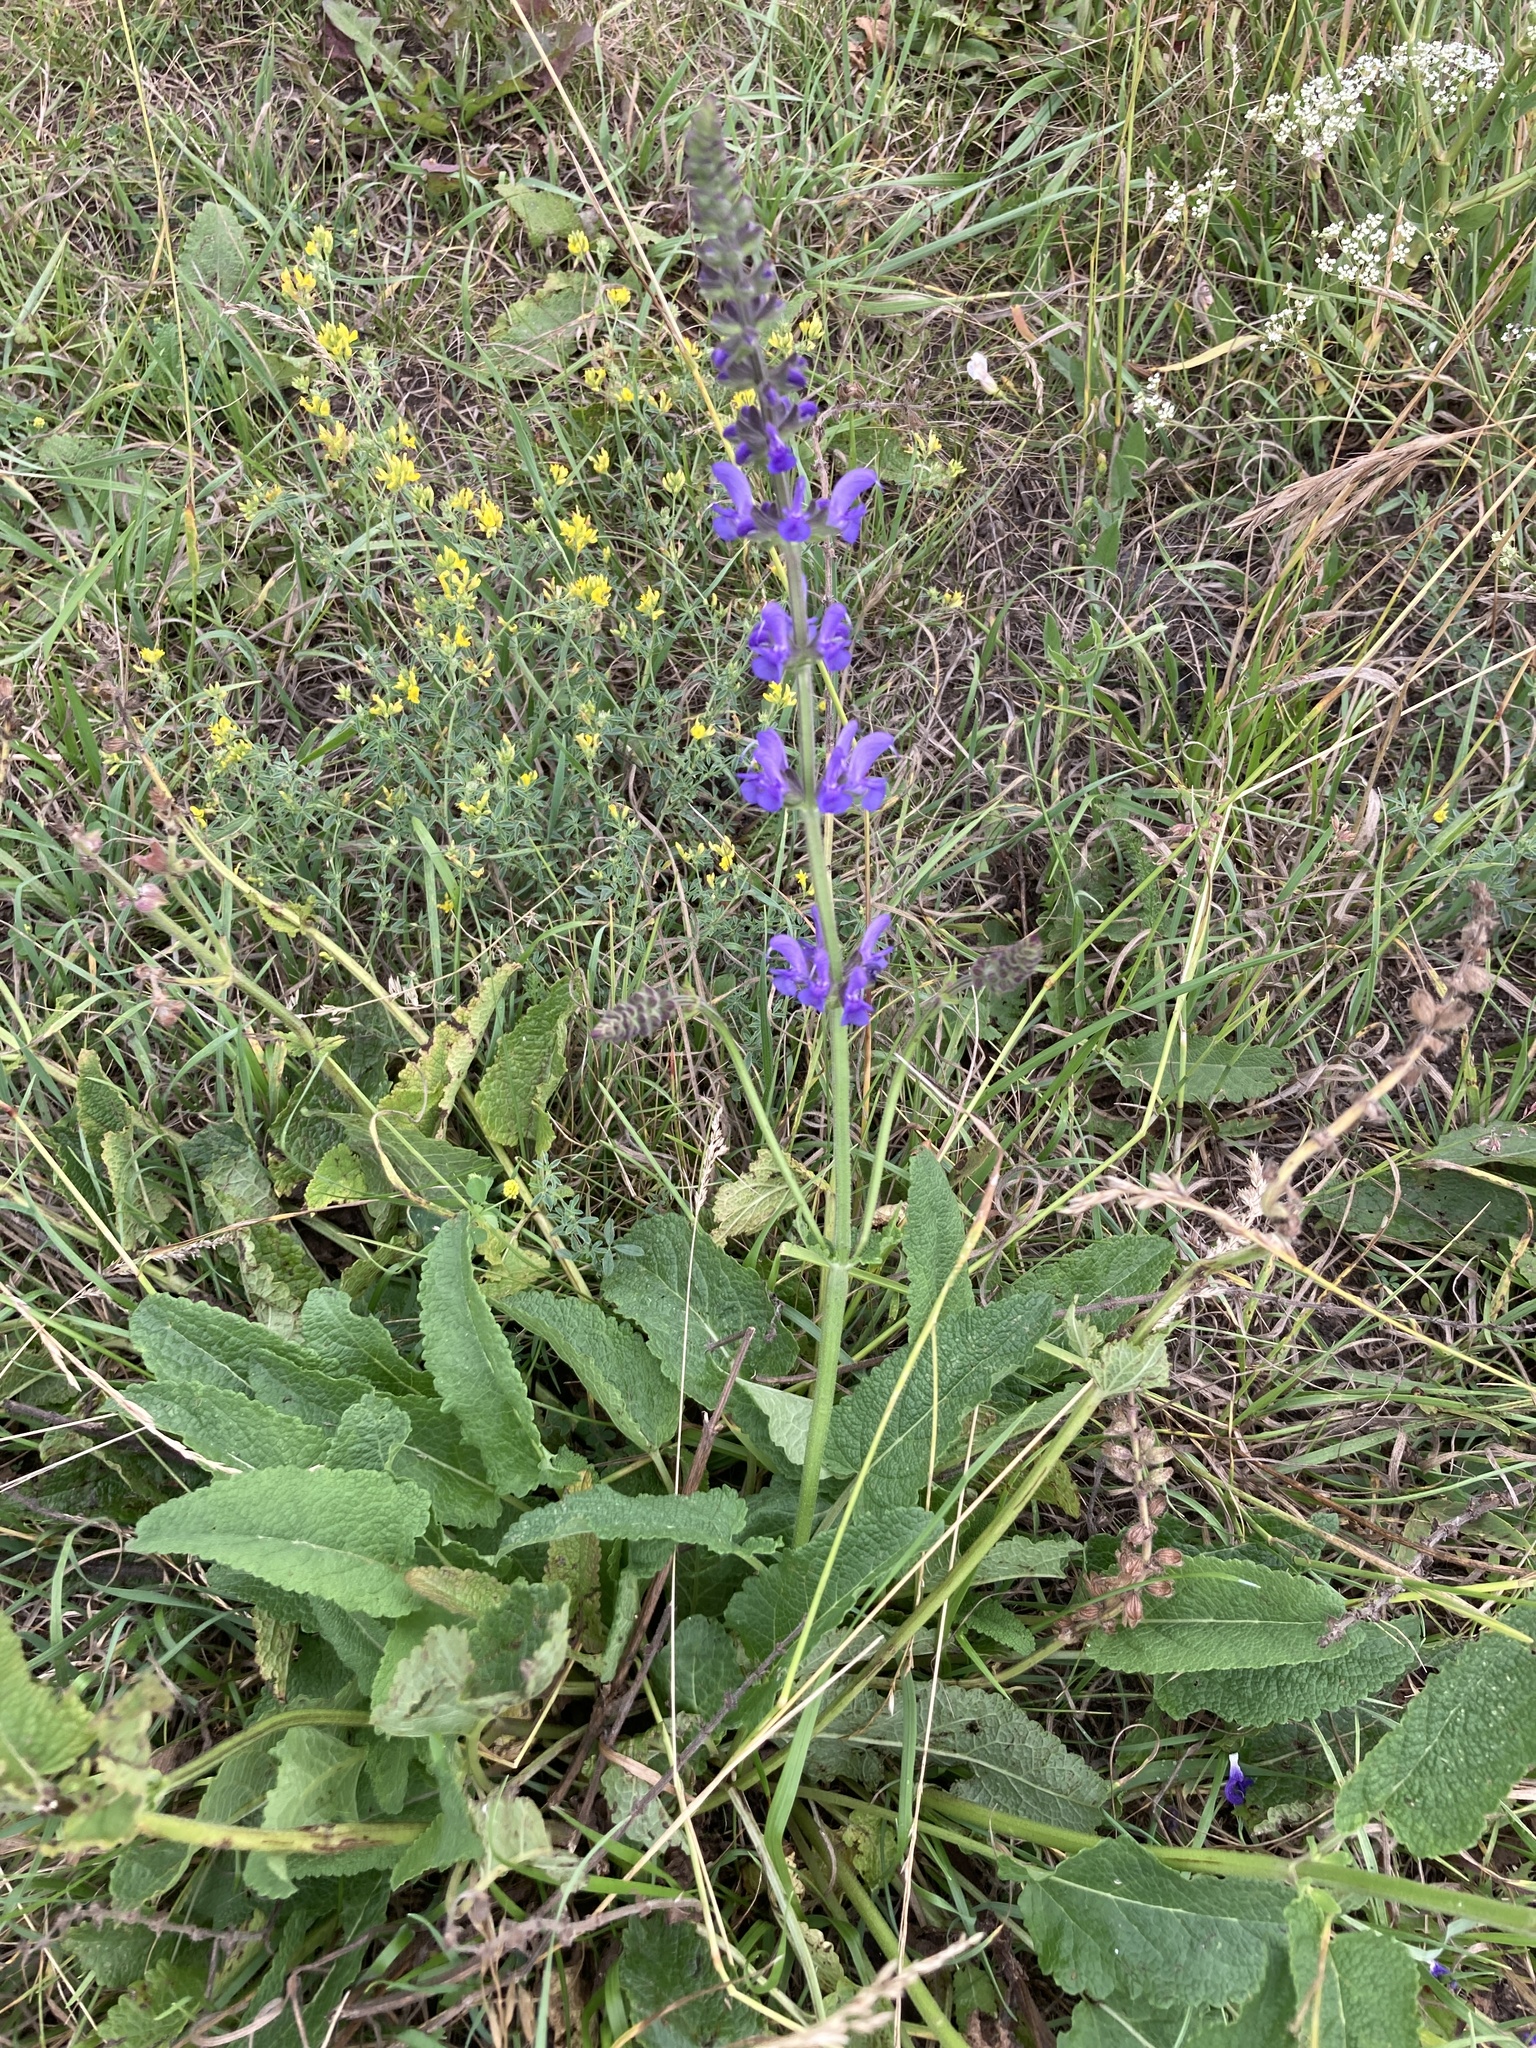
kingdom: Plantae
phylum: Tracheophyta
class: Magnoliopsida
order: Lamiales
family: Lamiaceae
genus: Salvia
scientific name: Salvia dumetorum
